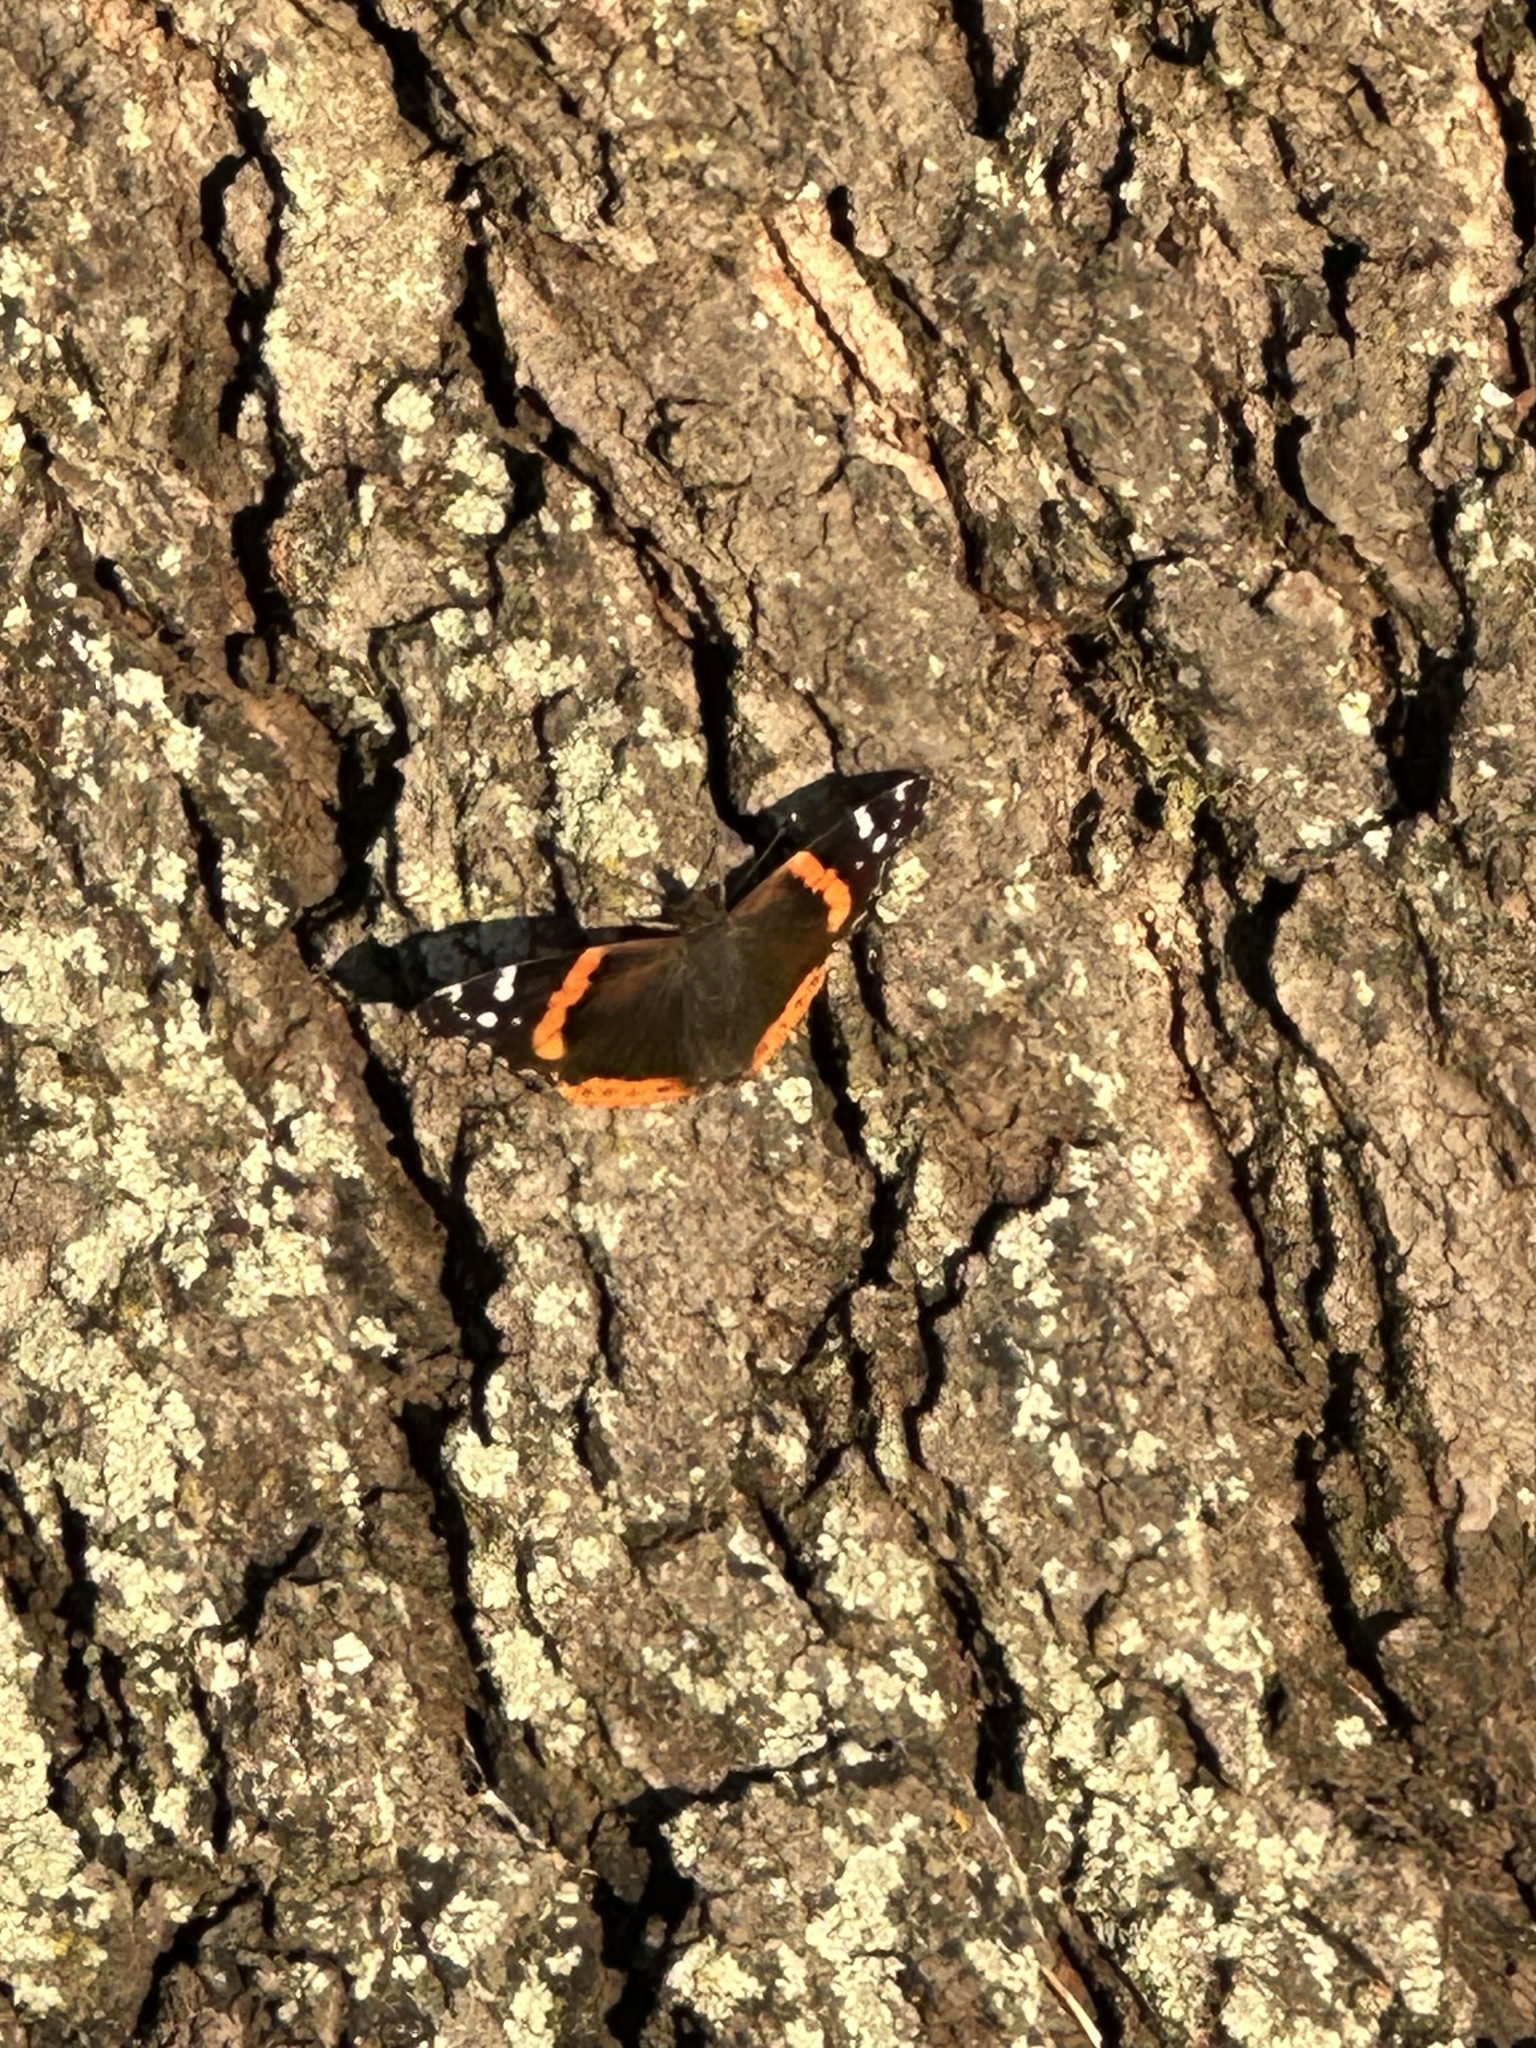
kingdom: Animalia
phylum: Arthropoda
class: Insecta
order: Lepidoptera
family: Nymphalidae
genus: Vanessa
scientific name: Vanessa atalanta
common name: Red admiral
